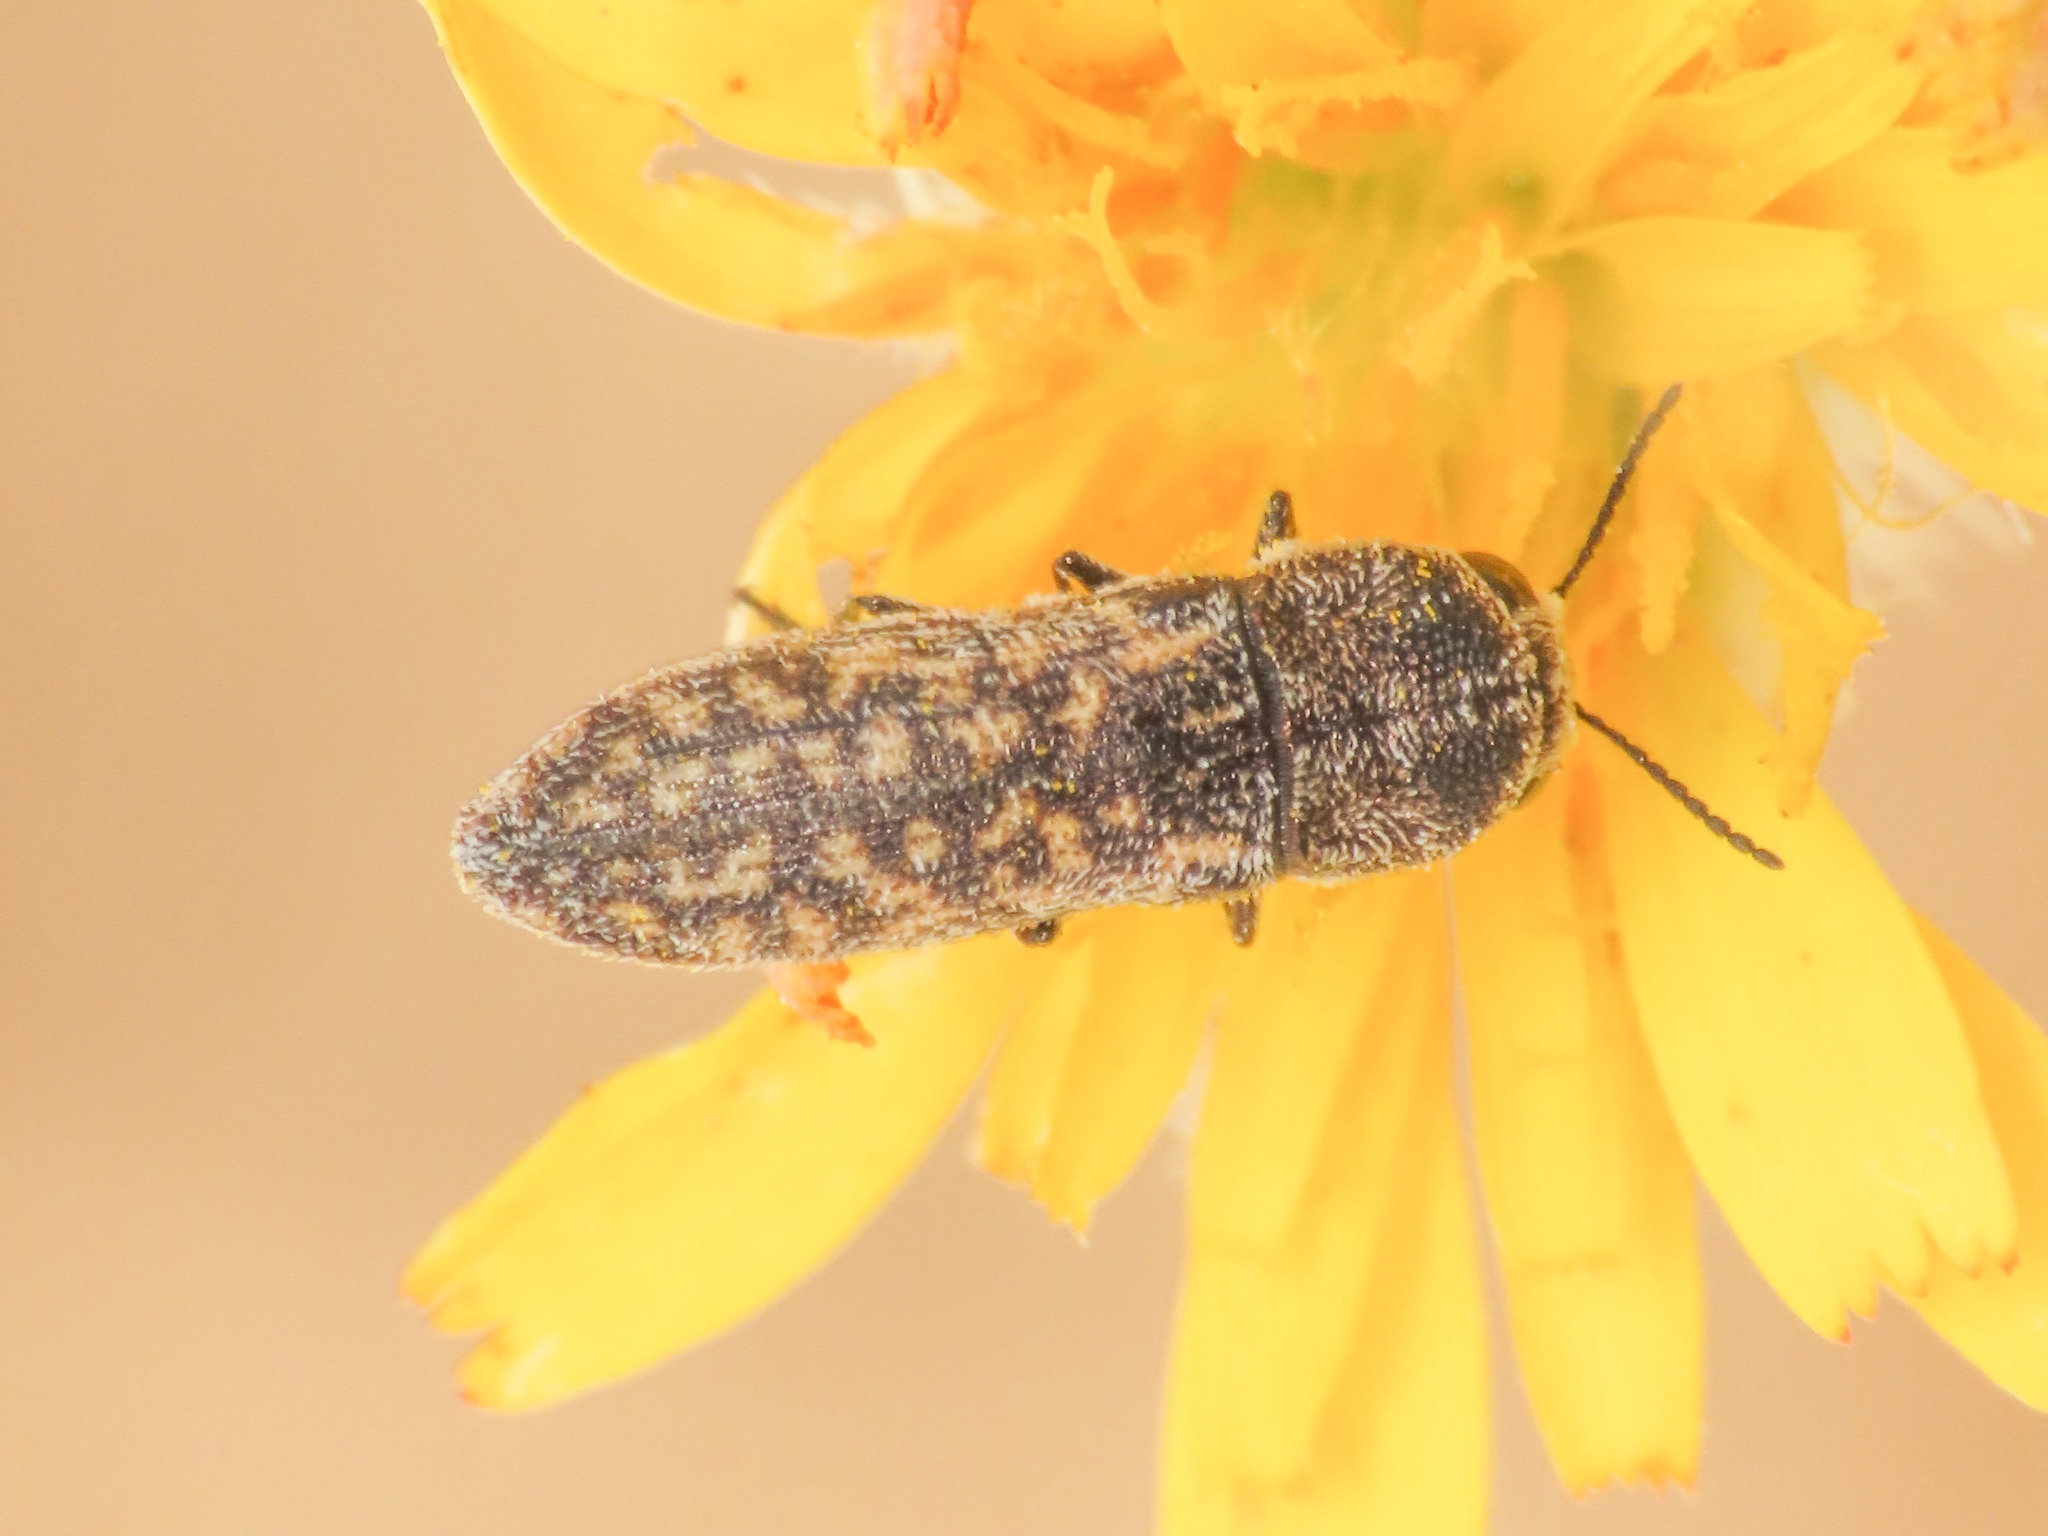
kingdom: Animalia
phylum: Arthropoda
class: Insecta
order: Coleoptera
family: Buprestidae
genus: Acmaeoderella
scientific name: Acmaeoderella adspersula
